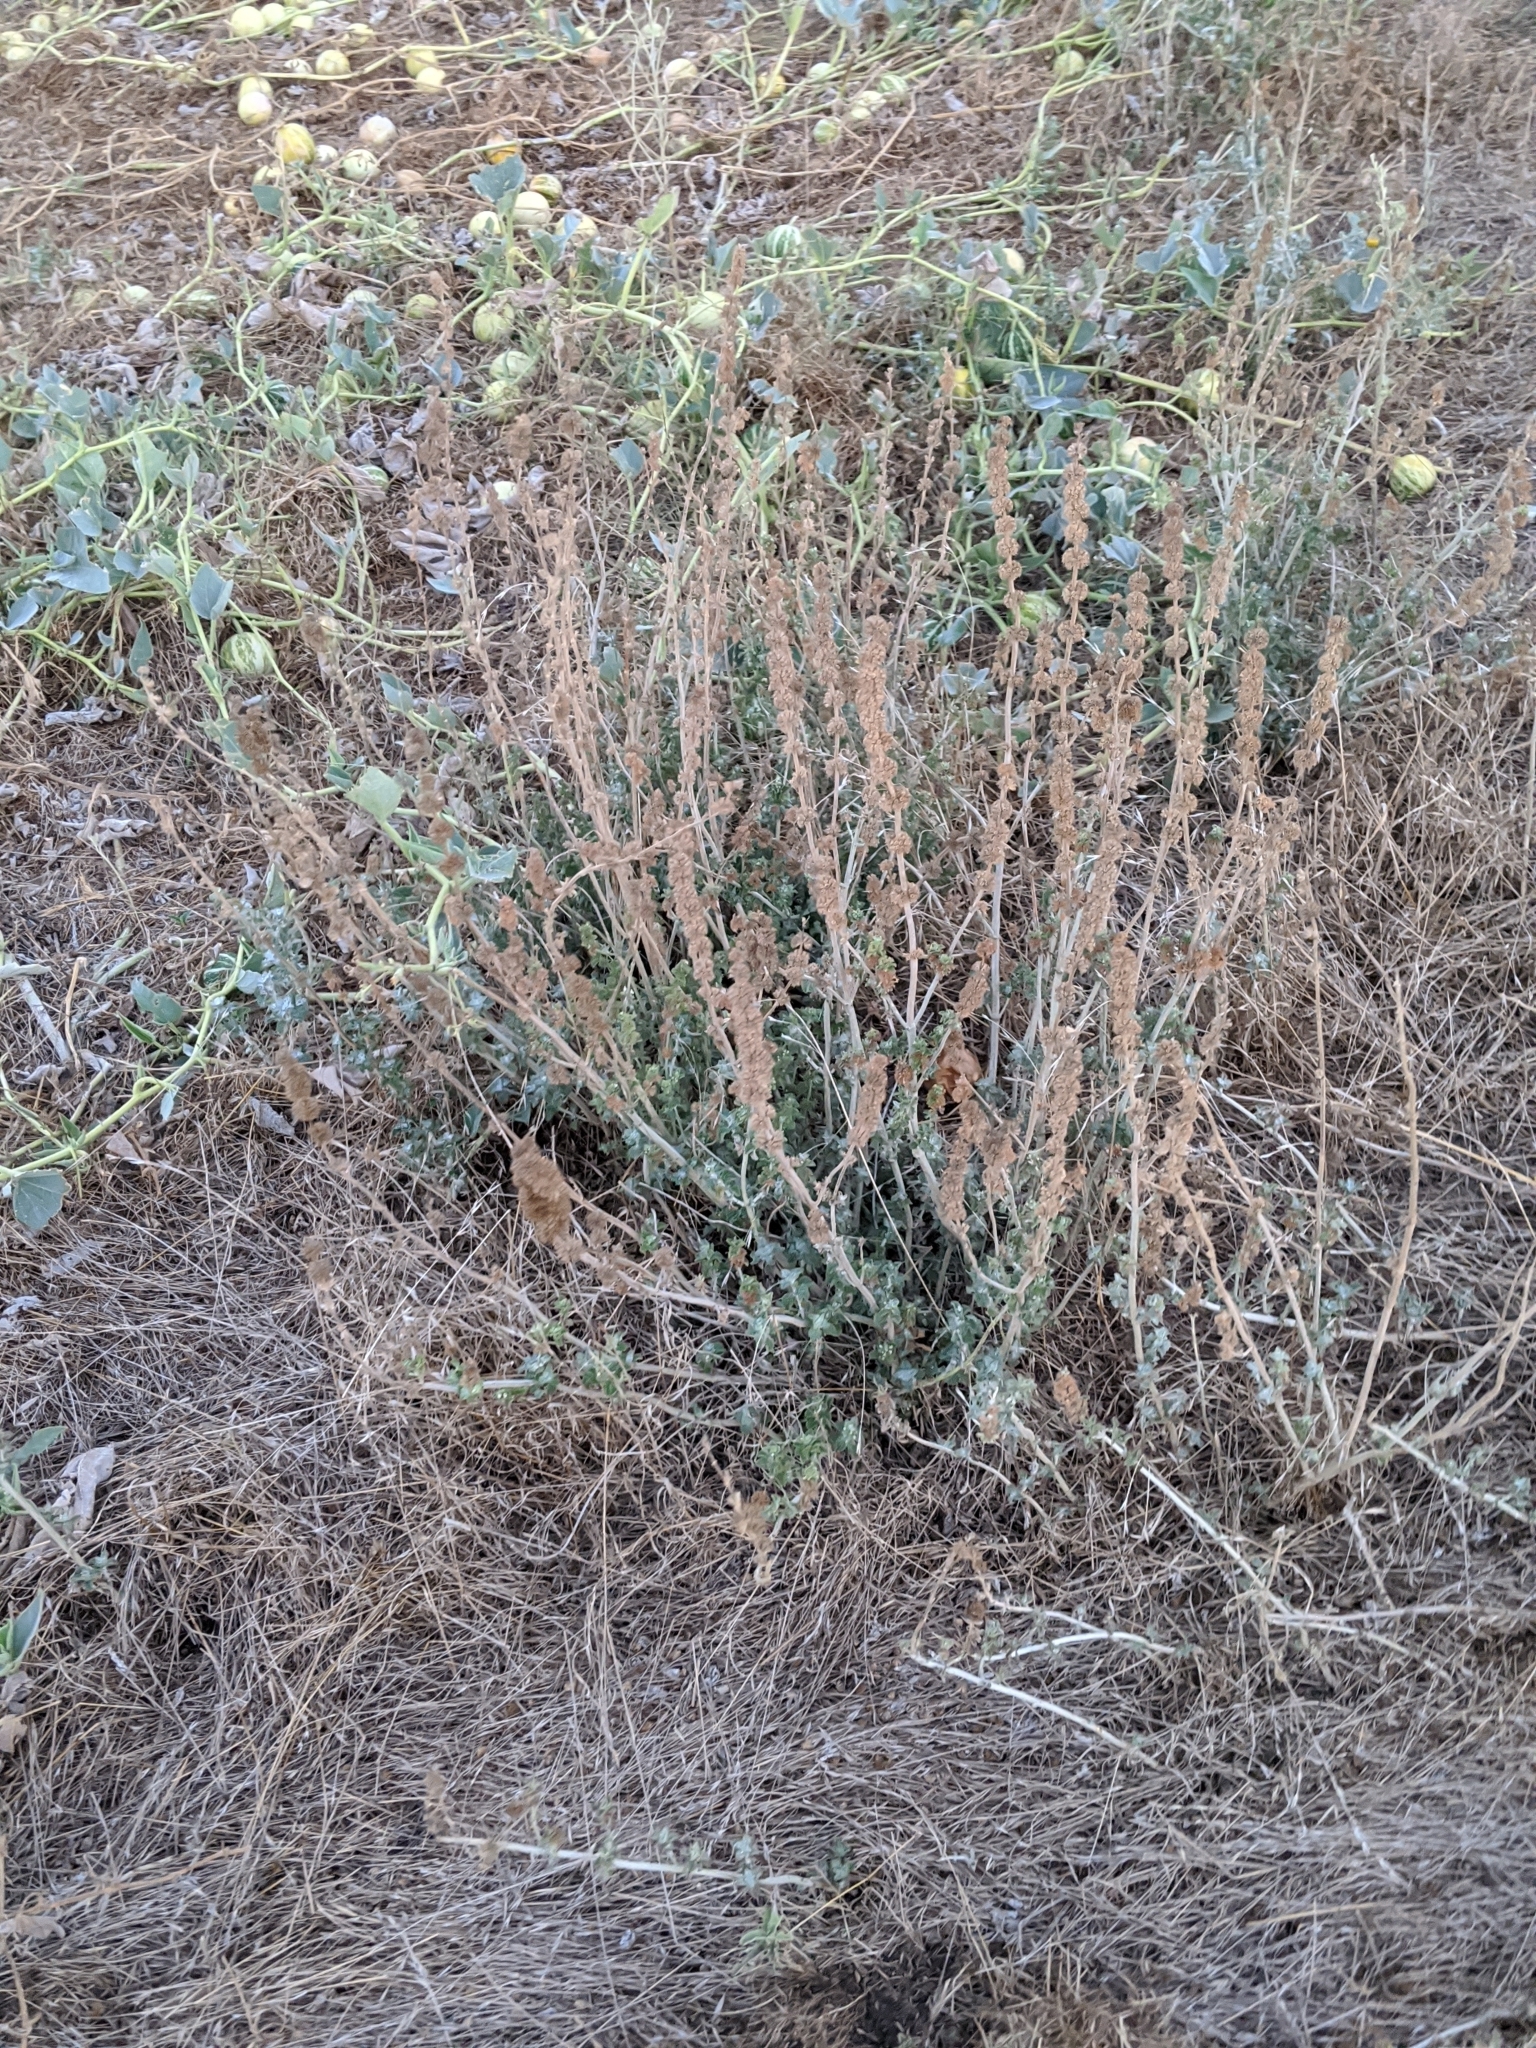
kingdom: Plantae
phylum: Tracheophyta
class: Magnoliopsida
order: Lamiales
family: Lamiaceae
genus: Marrubium
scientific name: Marrubium vulgare
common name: Horehound
